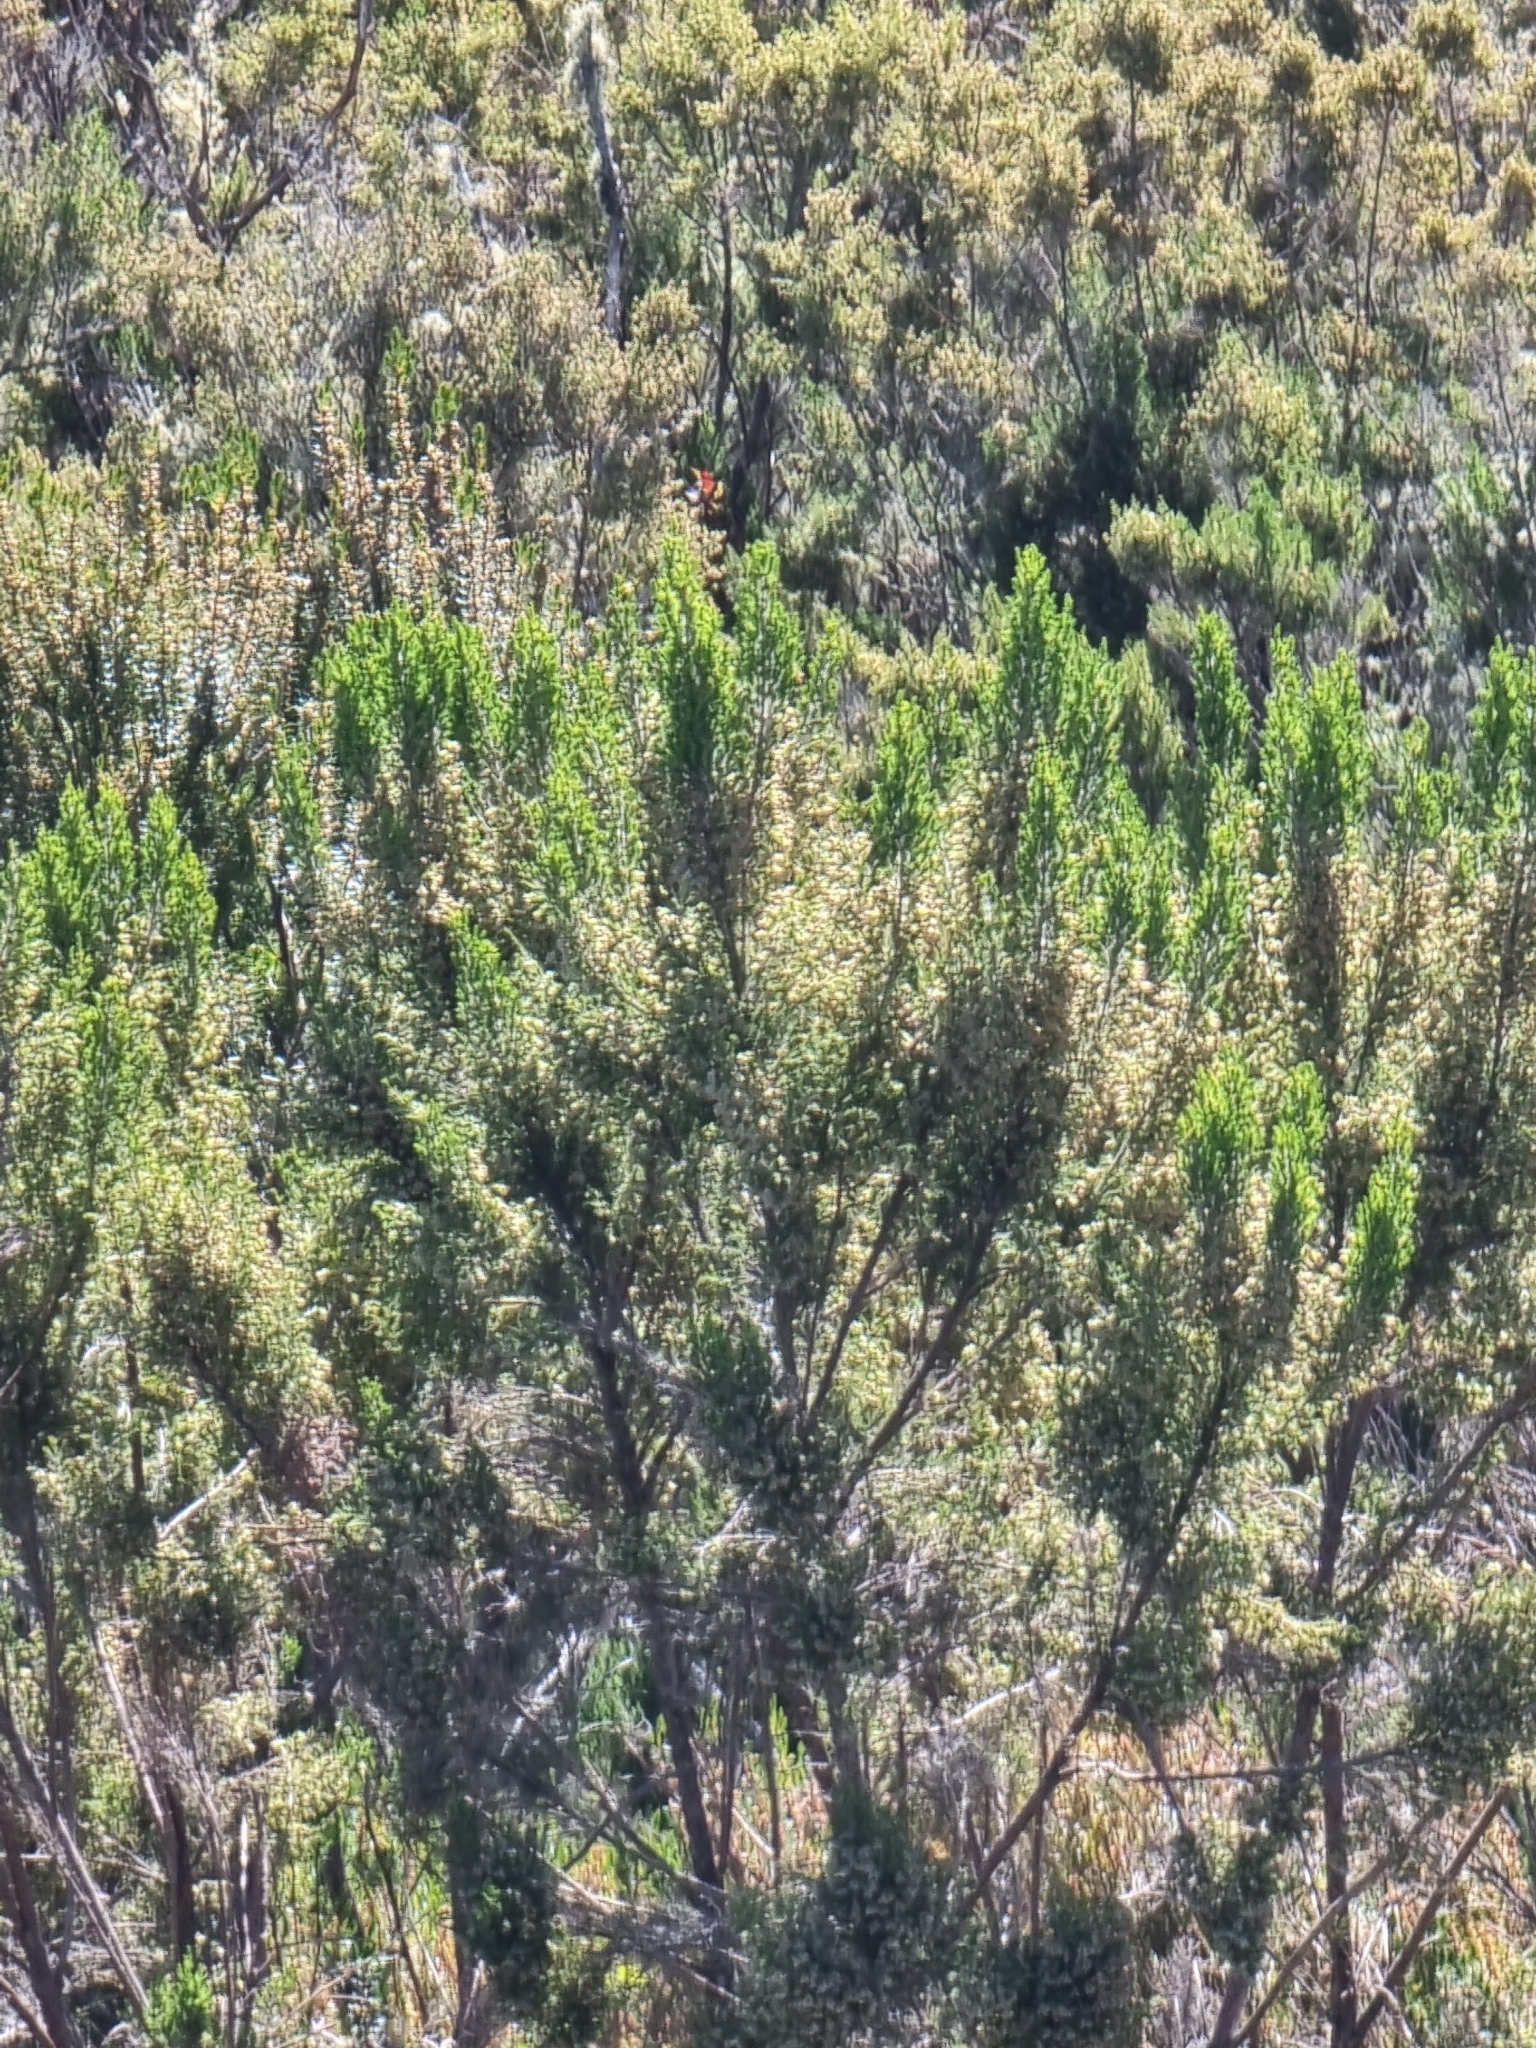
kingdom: Plantae
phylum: Tracheophyta
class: Magnoliopsida
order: Ericales
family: Ericaceae
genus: Erica
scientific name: Erica canariensis
